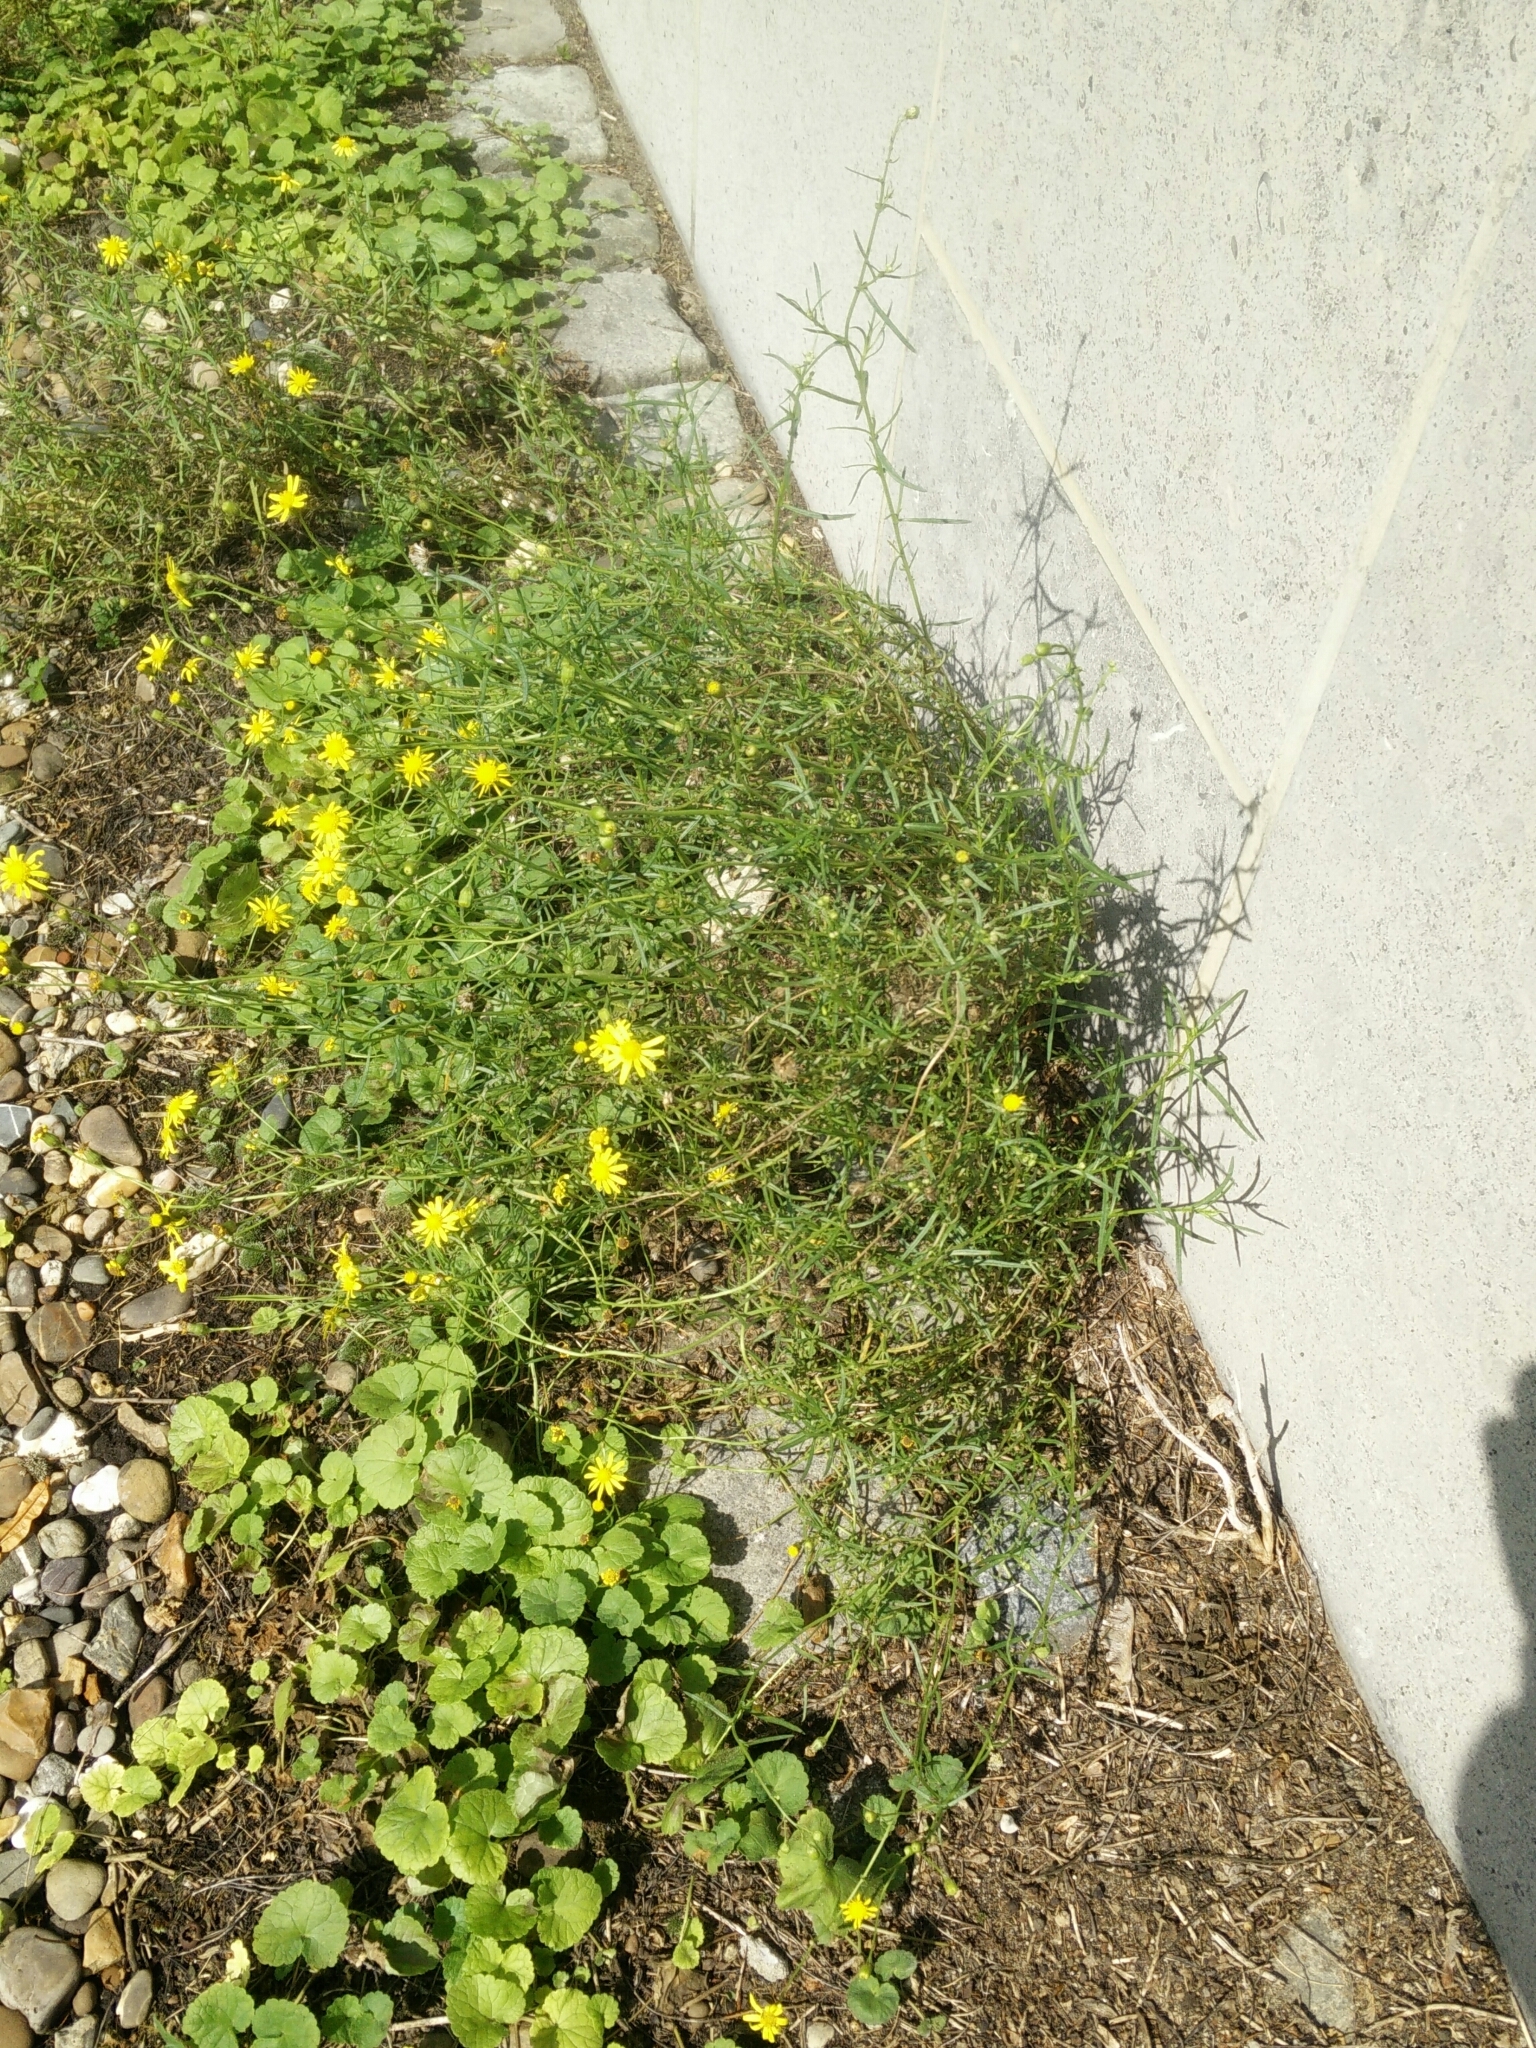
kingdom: Plantae
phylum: Tracheophyta
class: Magnoliopsida
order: Asterales
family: Asteraceae
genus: Senecio
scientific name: Senecio inaequidens
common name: Narrow-leaved ragwort
